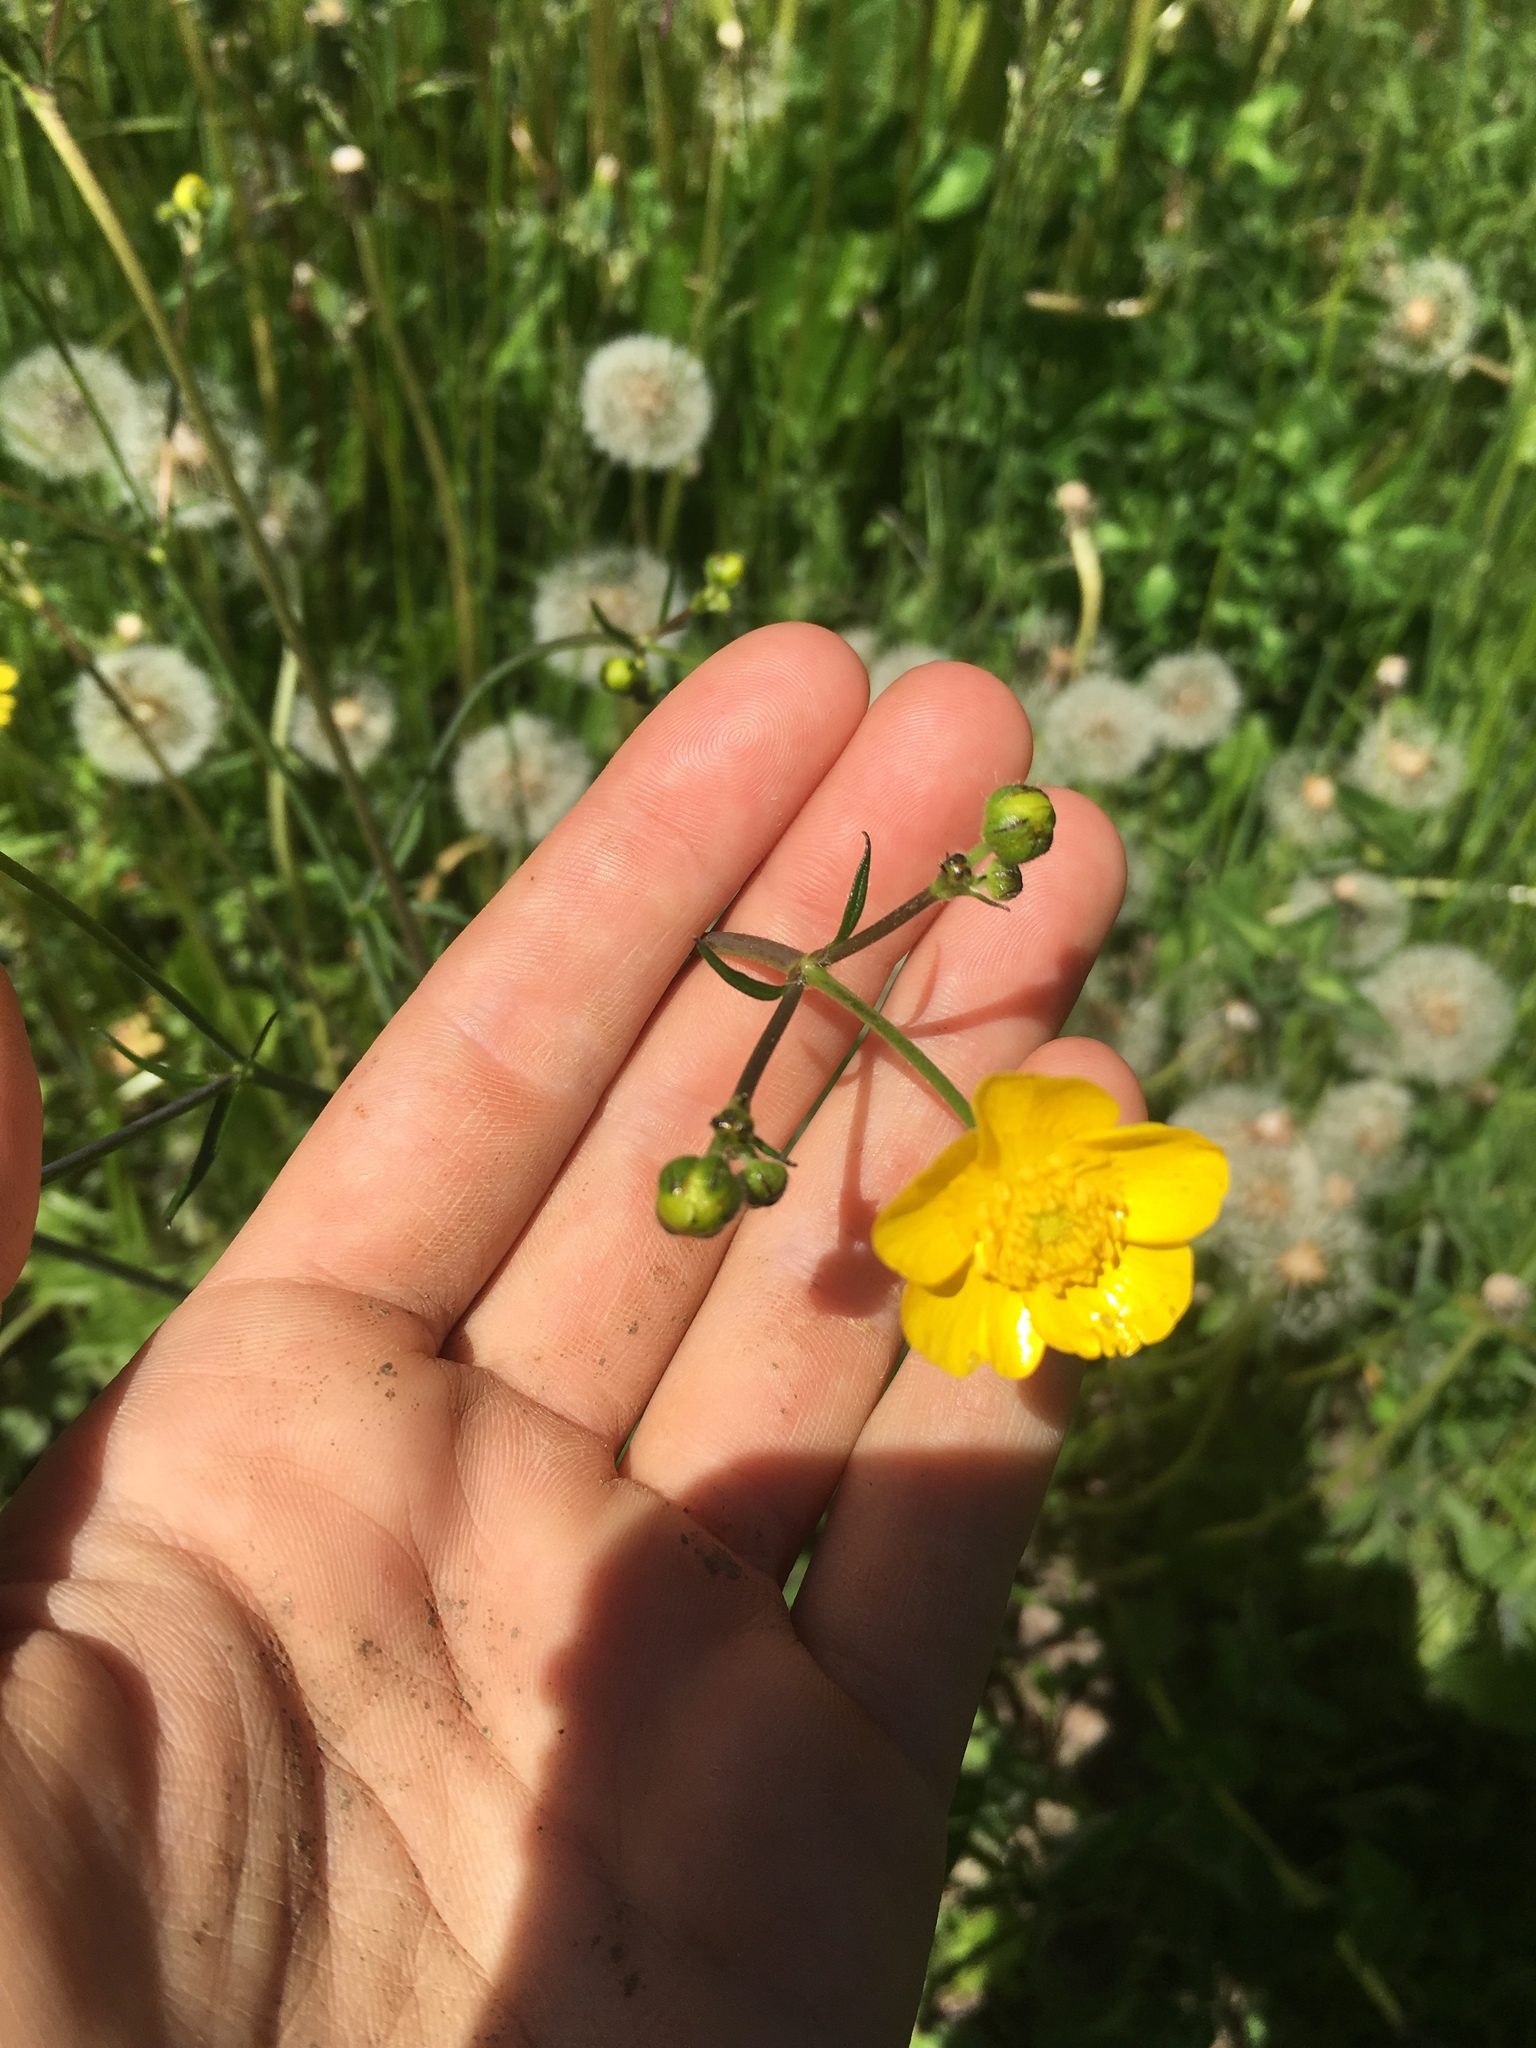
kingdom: Plantae
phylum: Tracheophyta
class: Magnoliopsida
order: Ranunculales
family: Ranunculaceae
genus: Ranunculus
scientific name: Ranunculus acris
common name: Meadow buttercup
